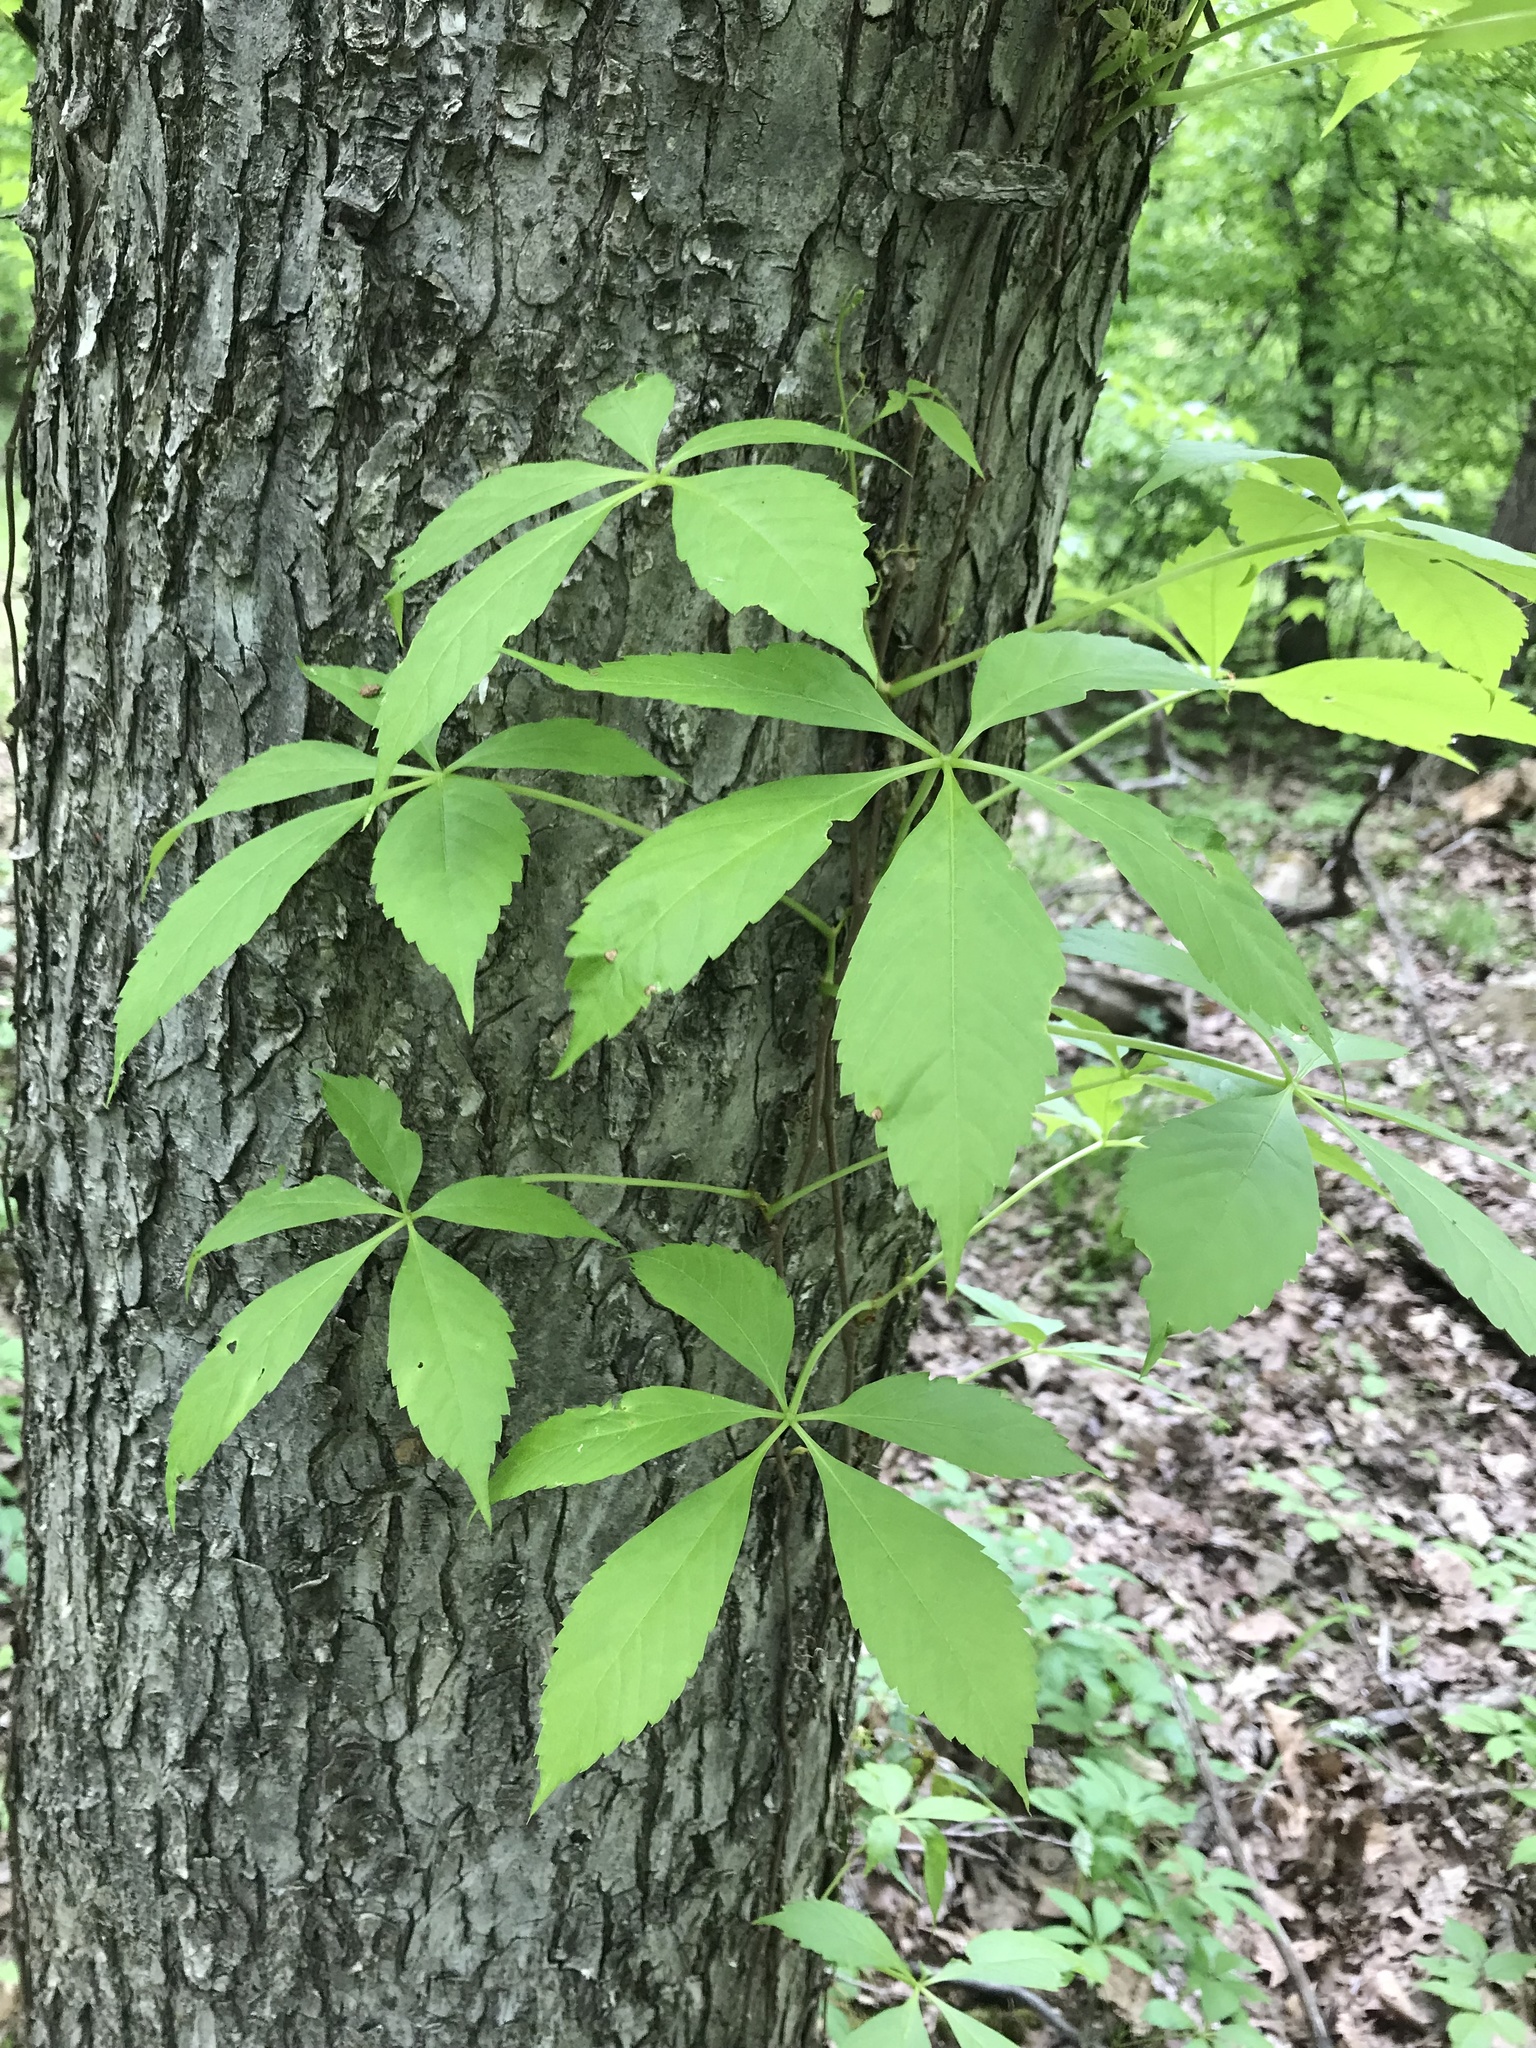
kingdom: Plantae
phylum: Tracheophyta
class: Magnoliopsida
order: Vitales
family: Vitaceae
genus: Parthenocissus
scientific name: Parthenocissus quinquefolia
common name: Virginia-creeper
